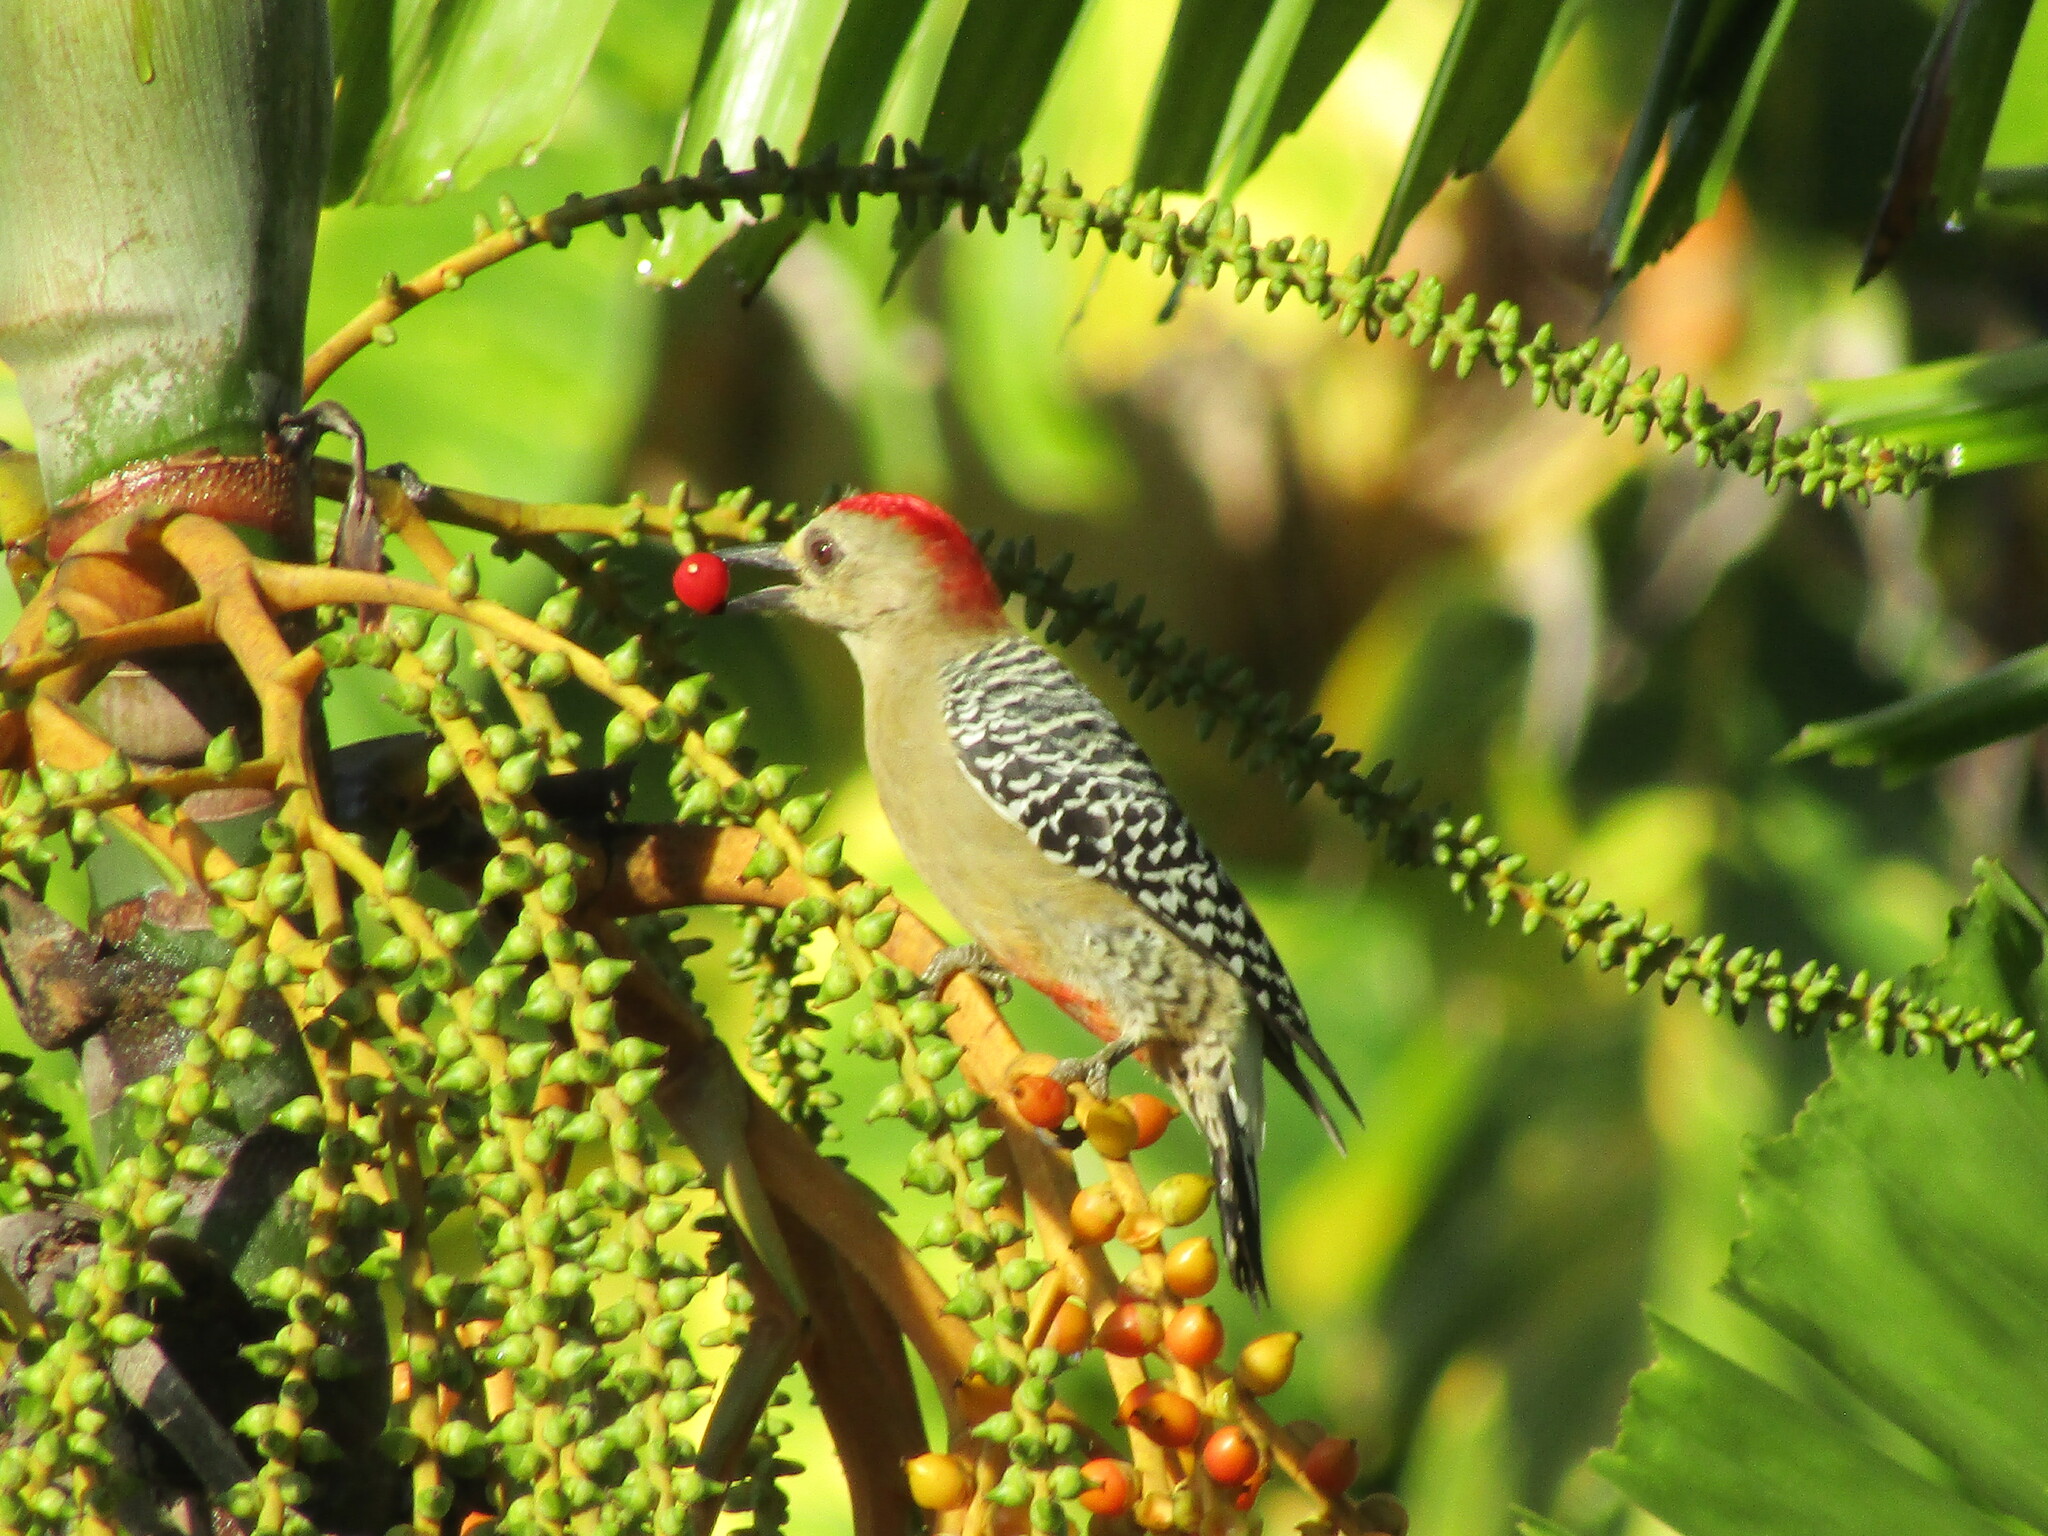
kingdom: Animalia
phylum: Chordata
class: Aves
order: Piciformes
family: Picidae
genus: Melanerpes
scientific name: Melanerpes rubricapillus
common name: Red-crowned woodpecker
